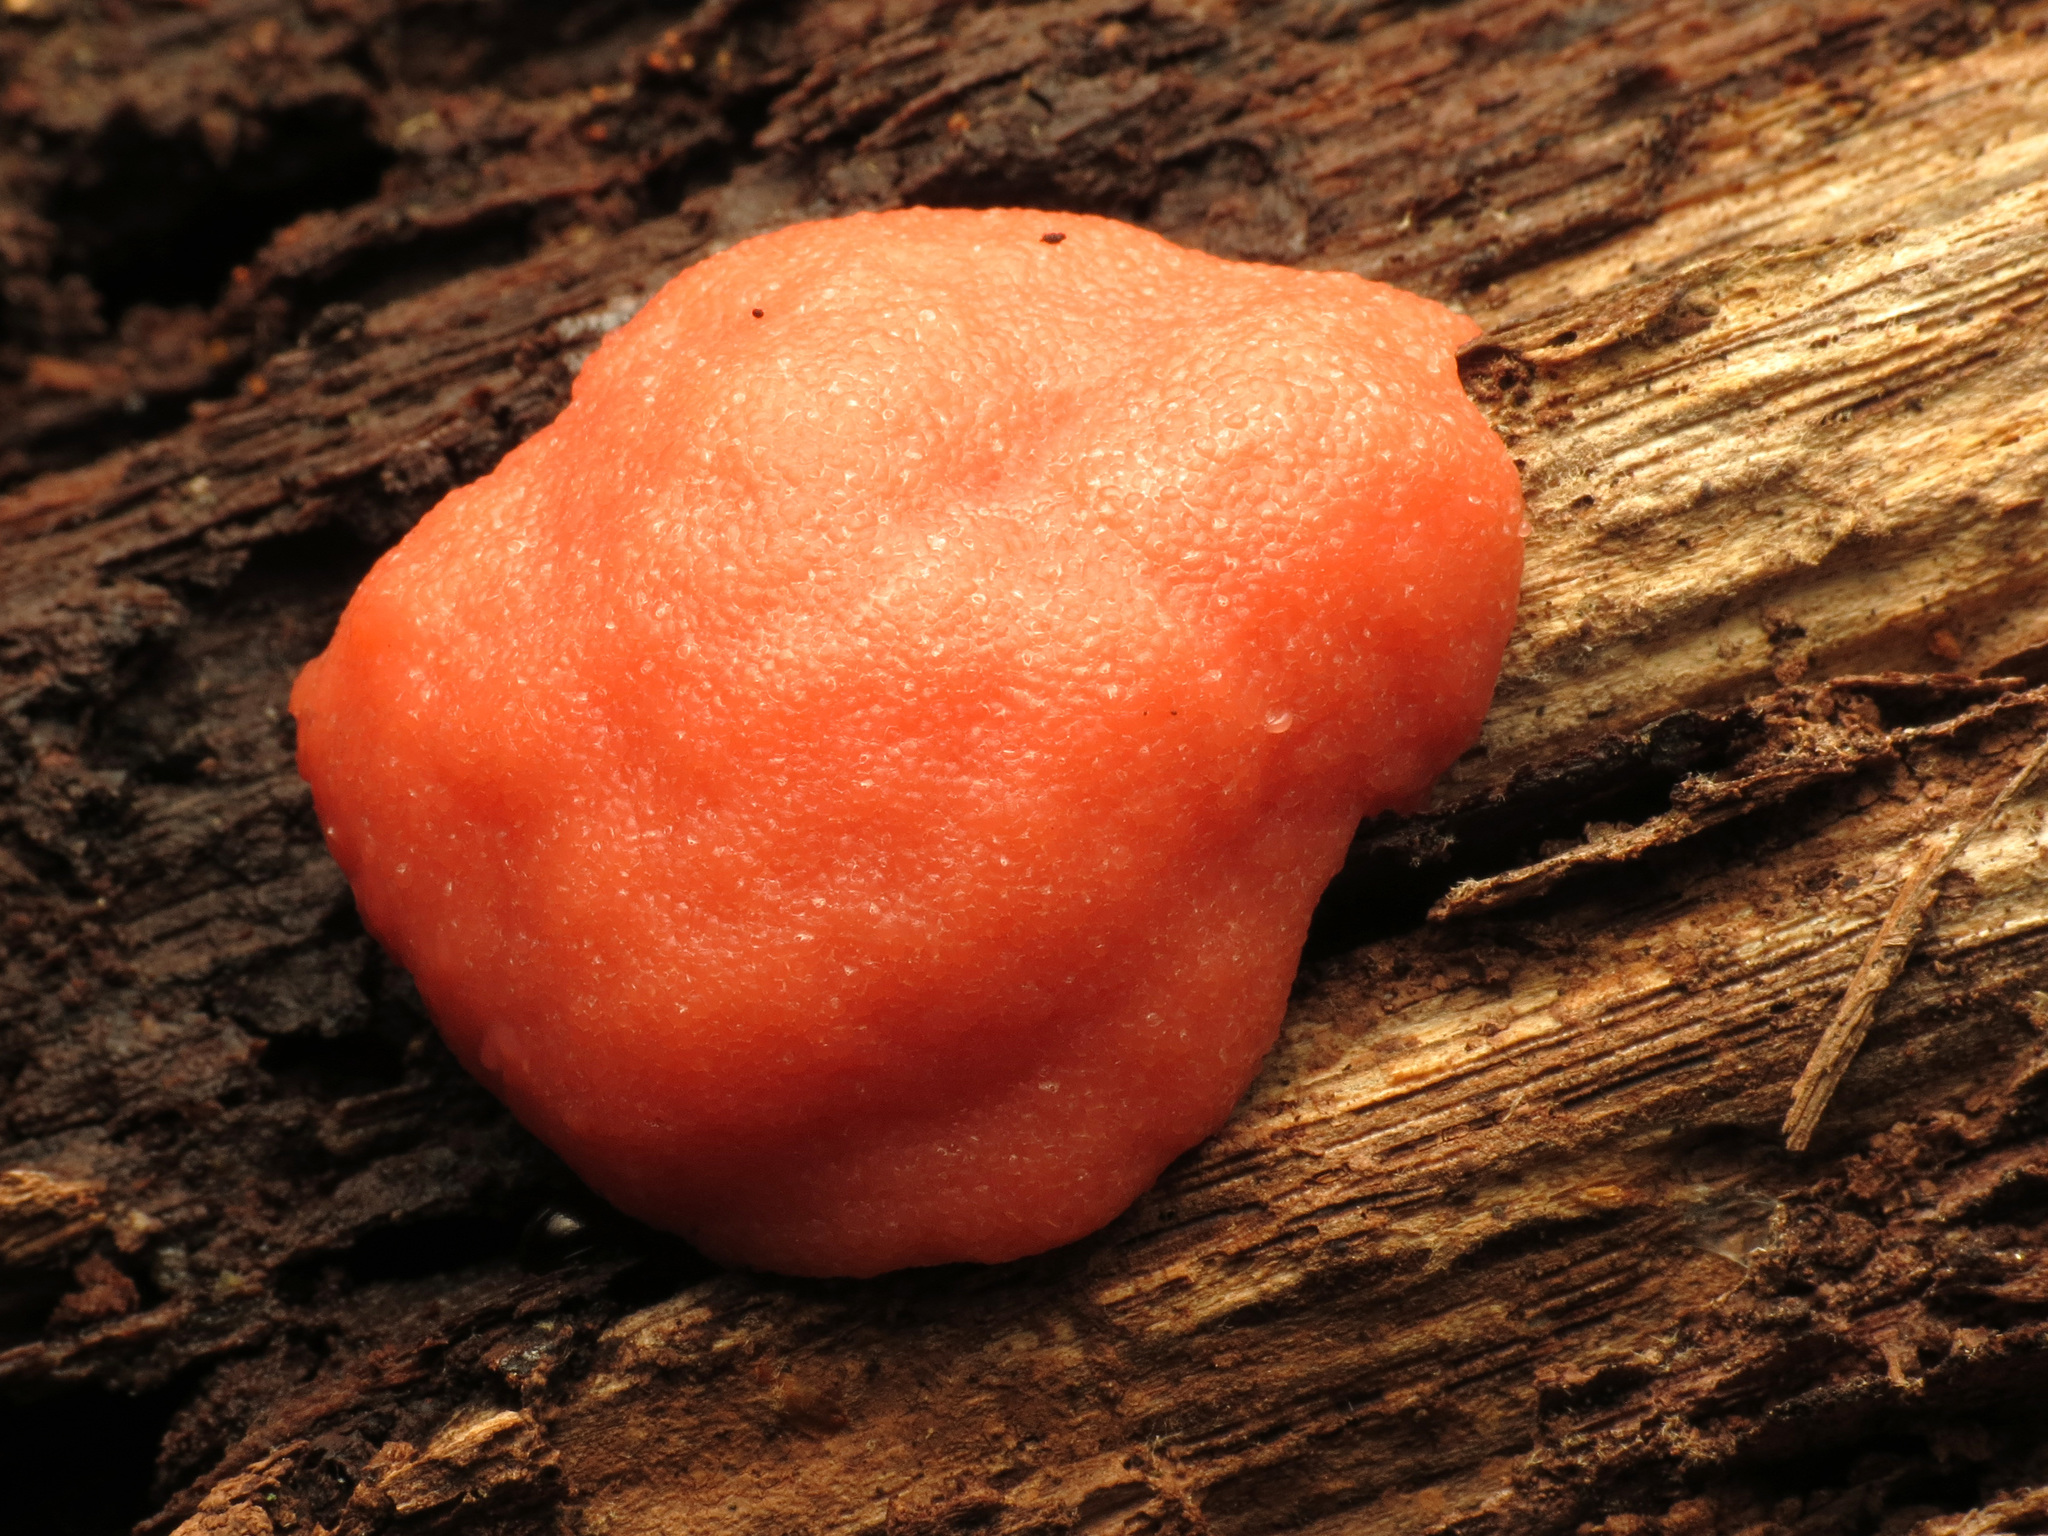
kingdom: Protozoa
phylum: Mycetozoa
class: Myxomycetes
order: Cribrariales
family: Tubiferaceae
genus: Tubifera
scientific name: Tubifera ferruginosa
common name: Red raspberry slime mold
